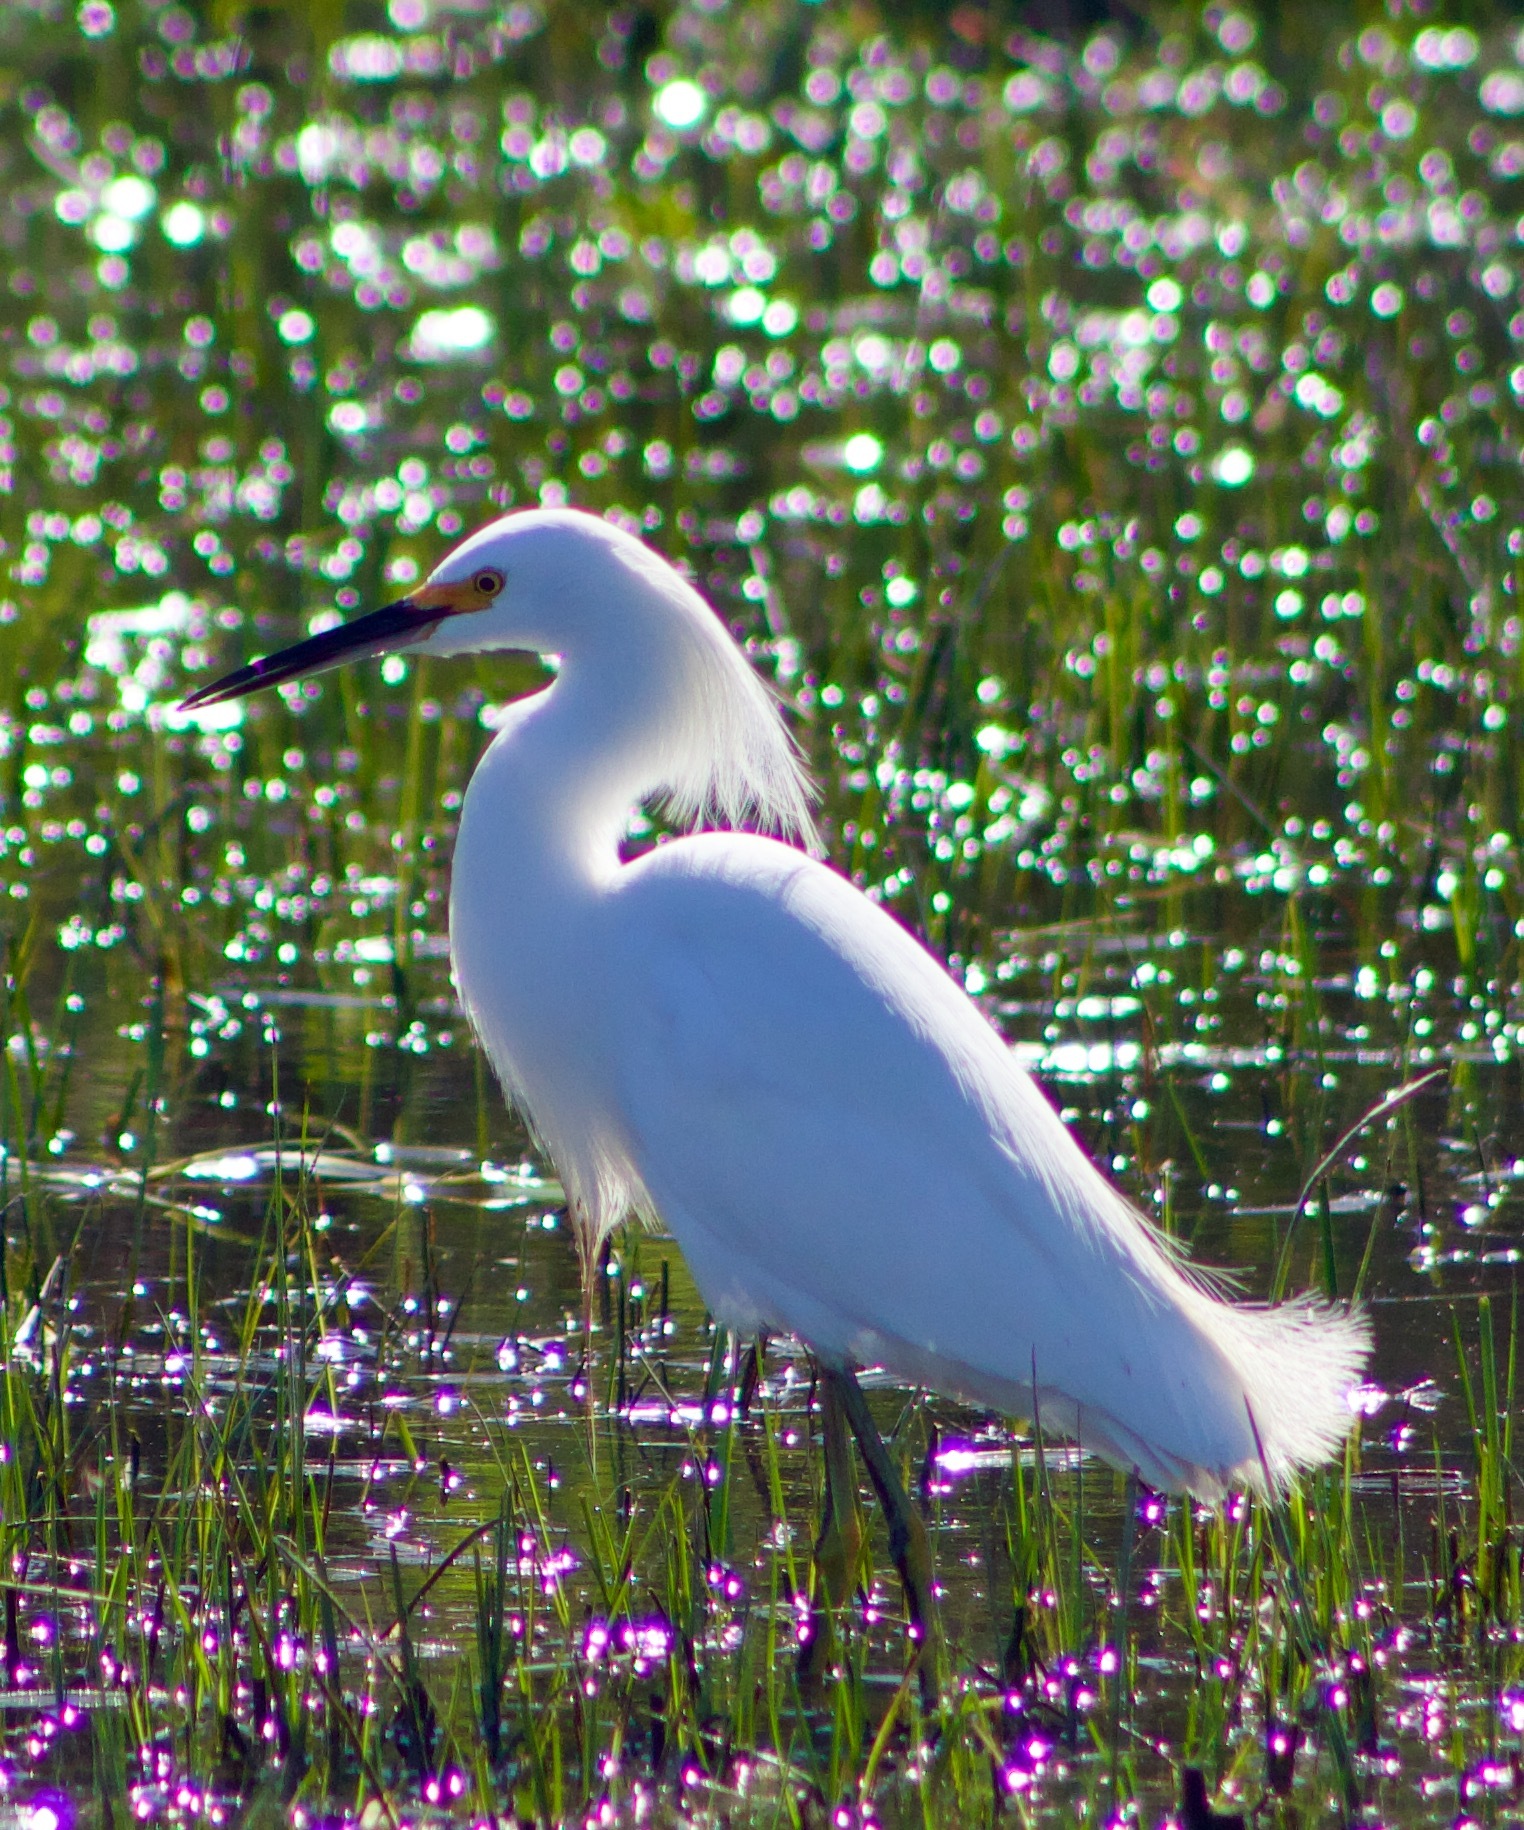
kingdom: Animalia
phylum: Chordata
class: Aves
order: Pelecaniformes
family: Ardeidae
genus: Egretta
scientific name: Egretta thula
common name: Snowy egret
